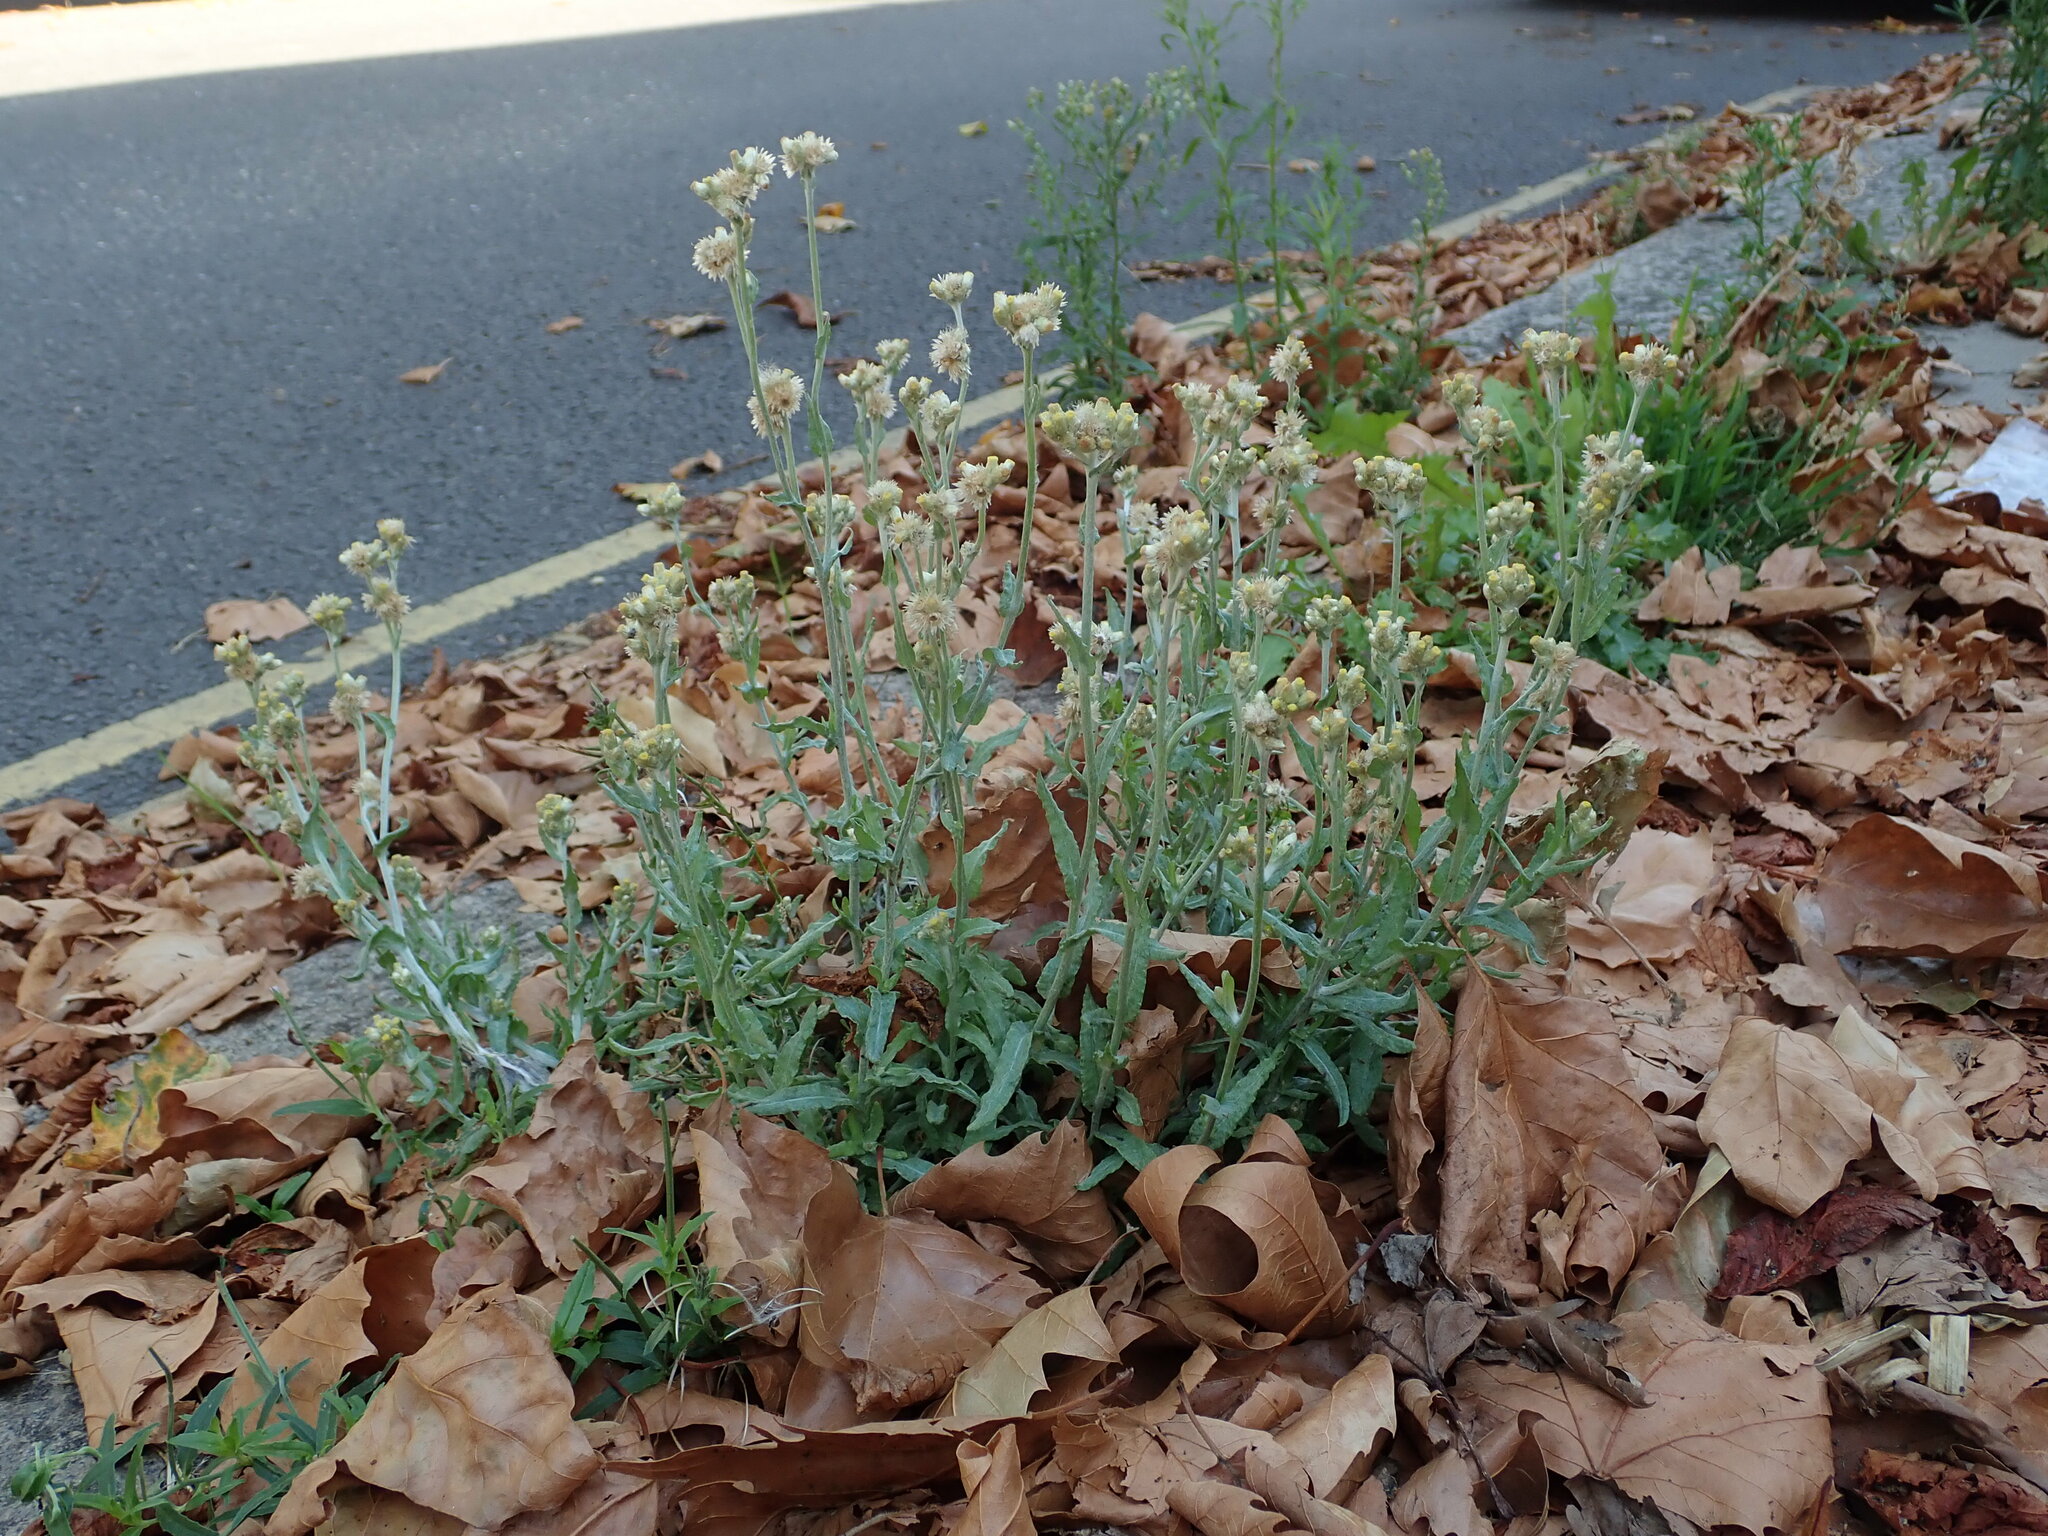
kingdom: Plantae
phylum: Tracheophyta
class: Magnoliopsida
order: Asterales
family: Asteraceae
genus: Helichrysum
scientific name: Helichrysum luteoalbum
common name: Daisy
